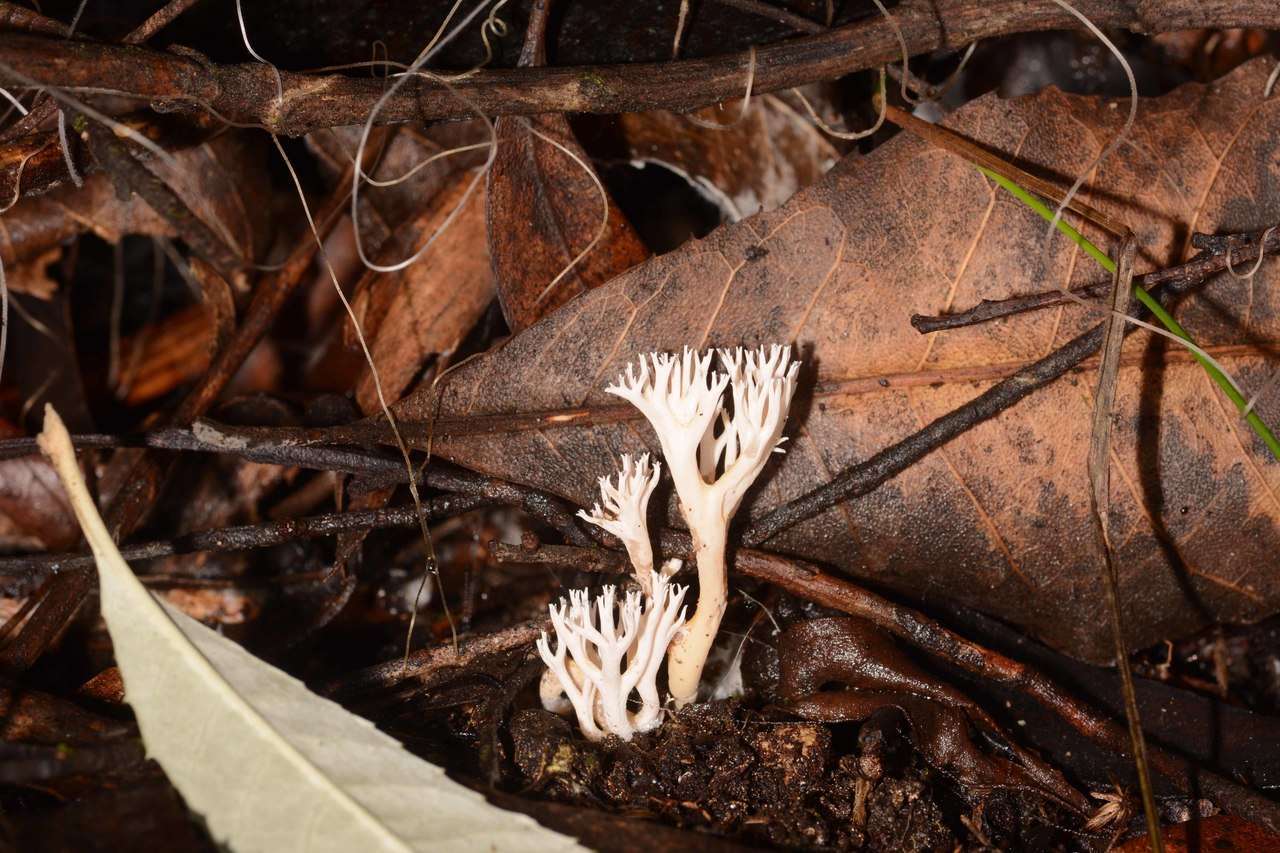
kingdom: Fungi
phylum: Basidiomycota
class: Agaricomycetes
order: Gomphales
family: Gomphaceae
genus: Ramaria
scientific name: Ramaria filicicola
